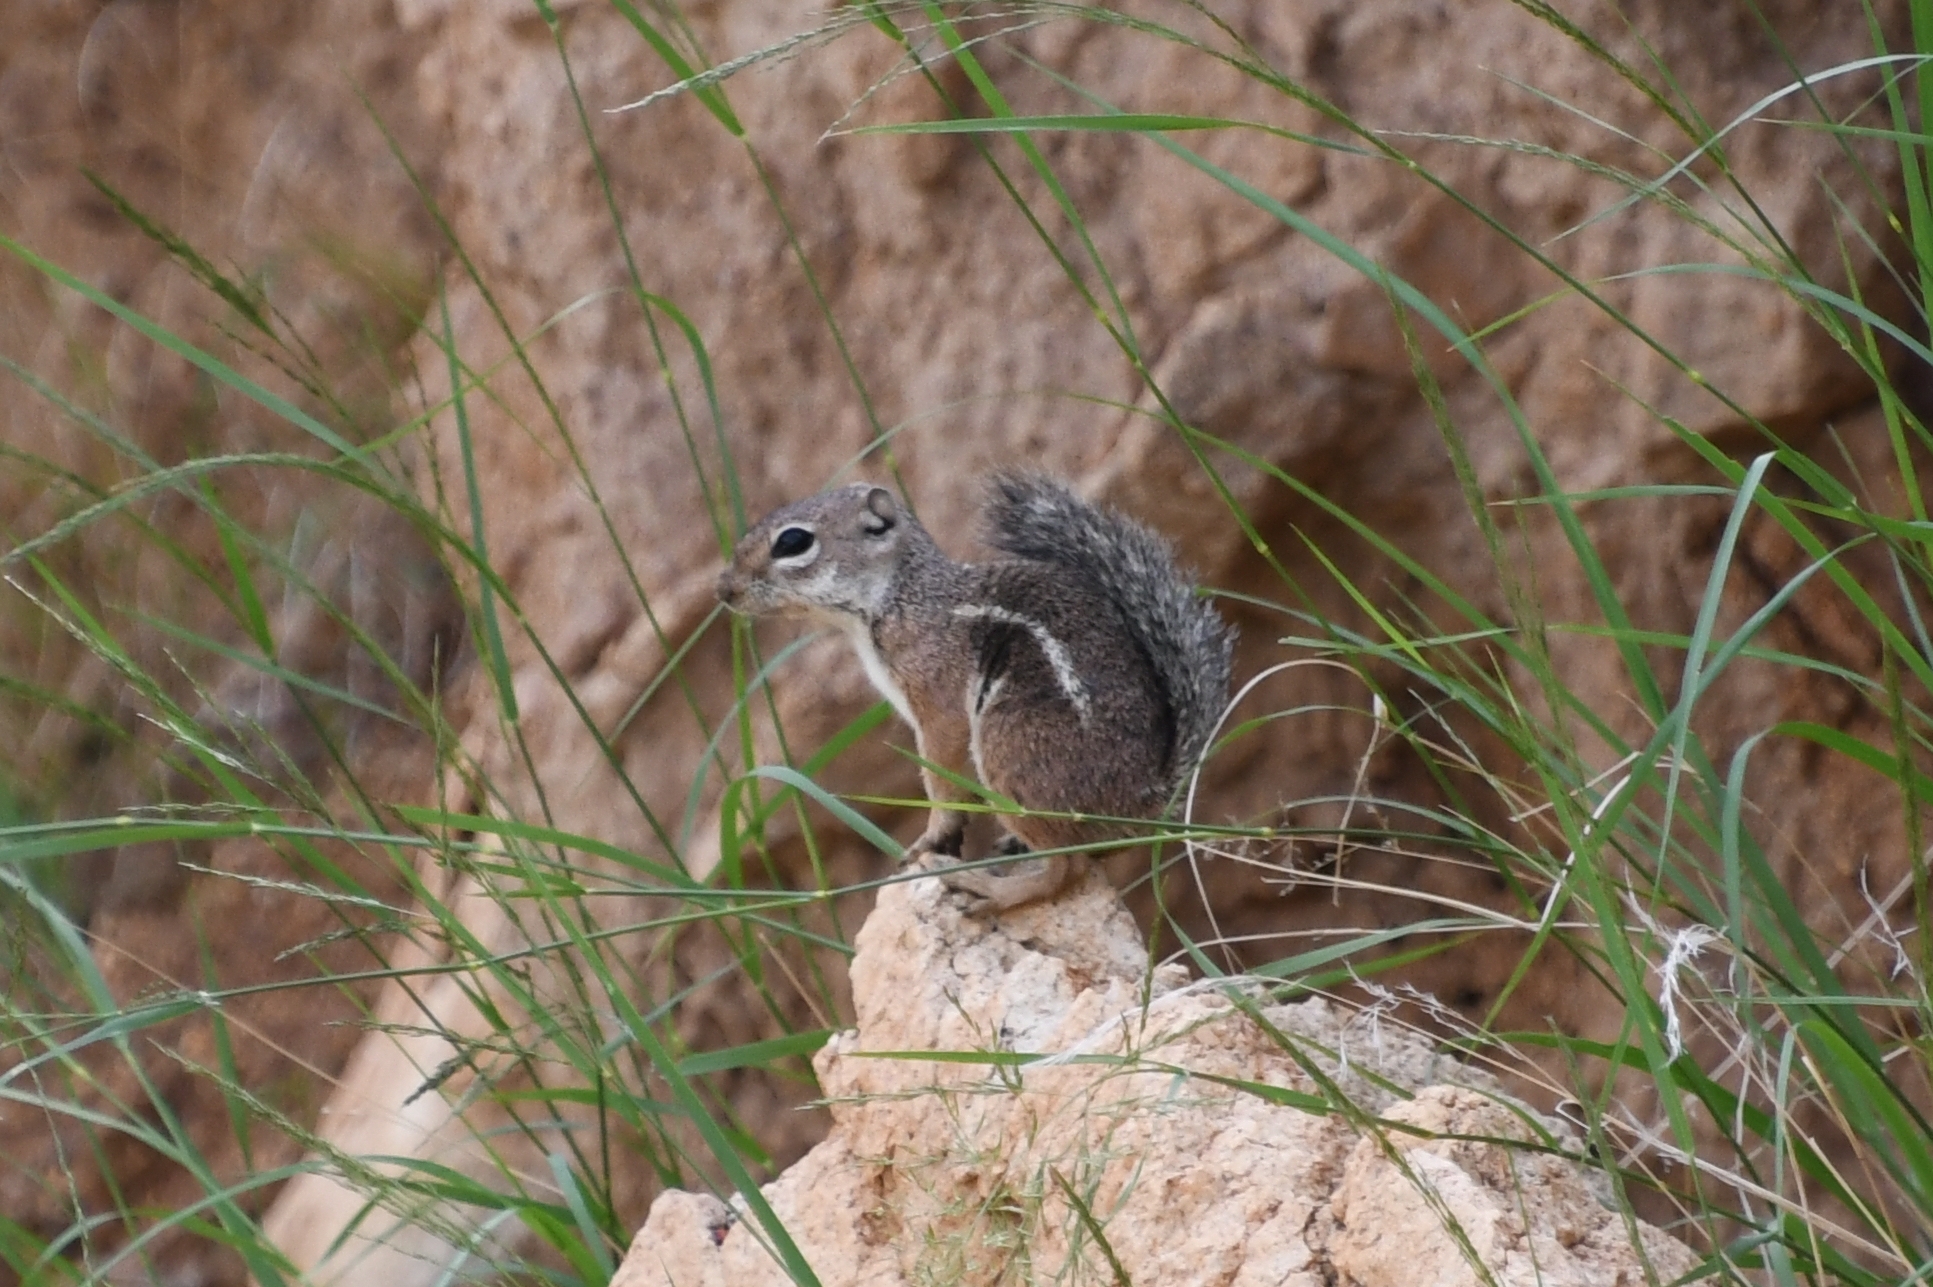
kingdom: Animalia
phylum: Chordata
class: Mammalia
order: Rodentia
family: Sciuridae
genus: Ammospermophilus
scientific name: Ammospermophilus harrisii
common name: Harris's antelope squirrel
